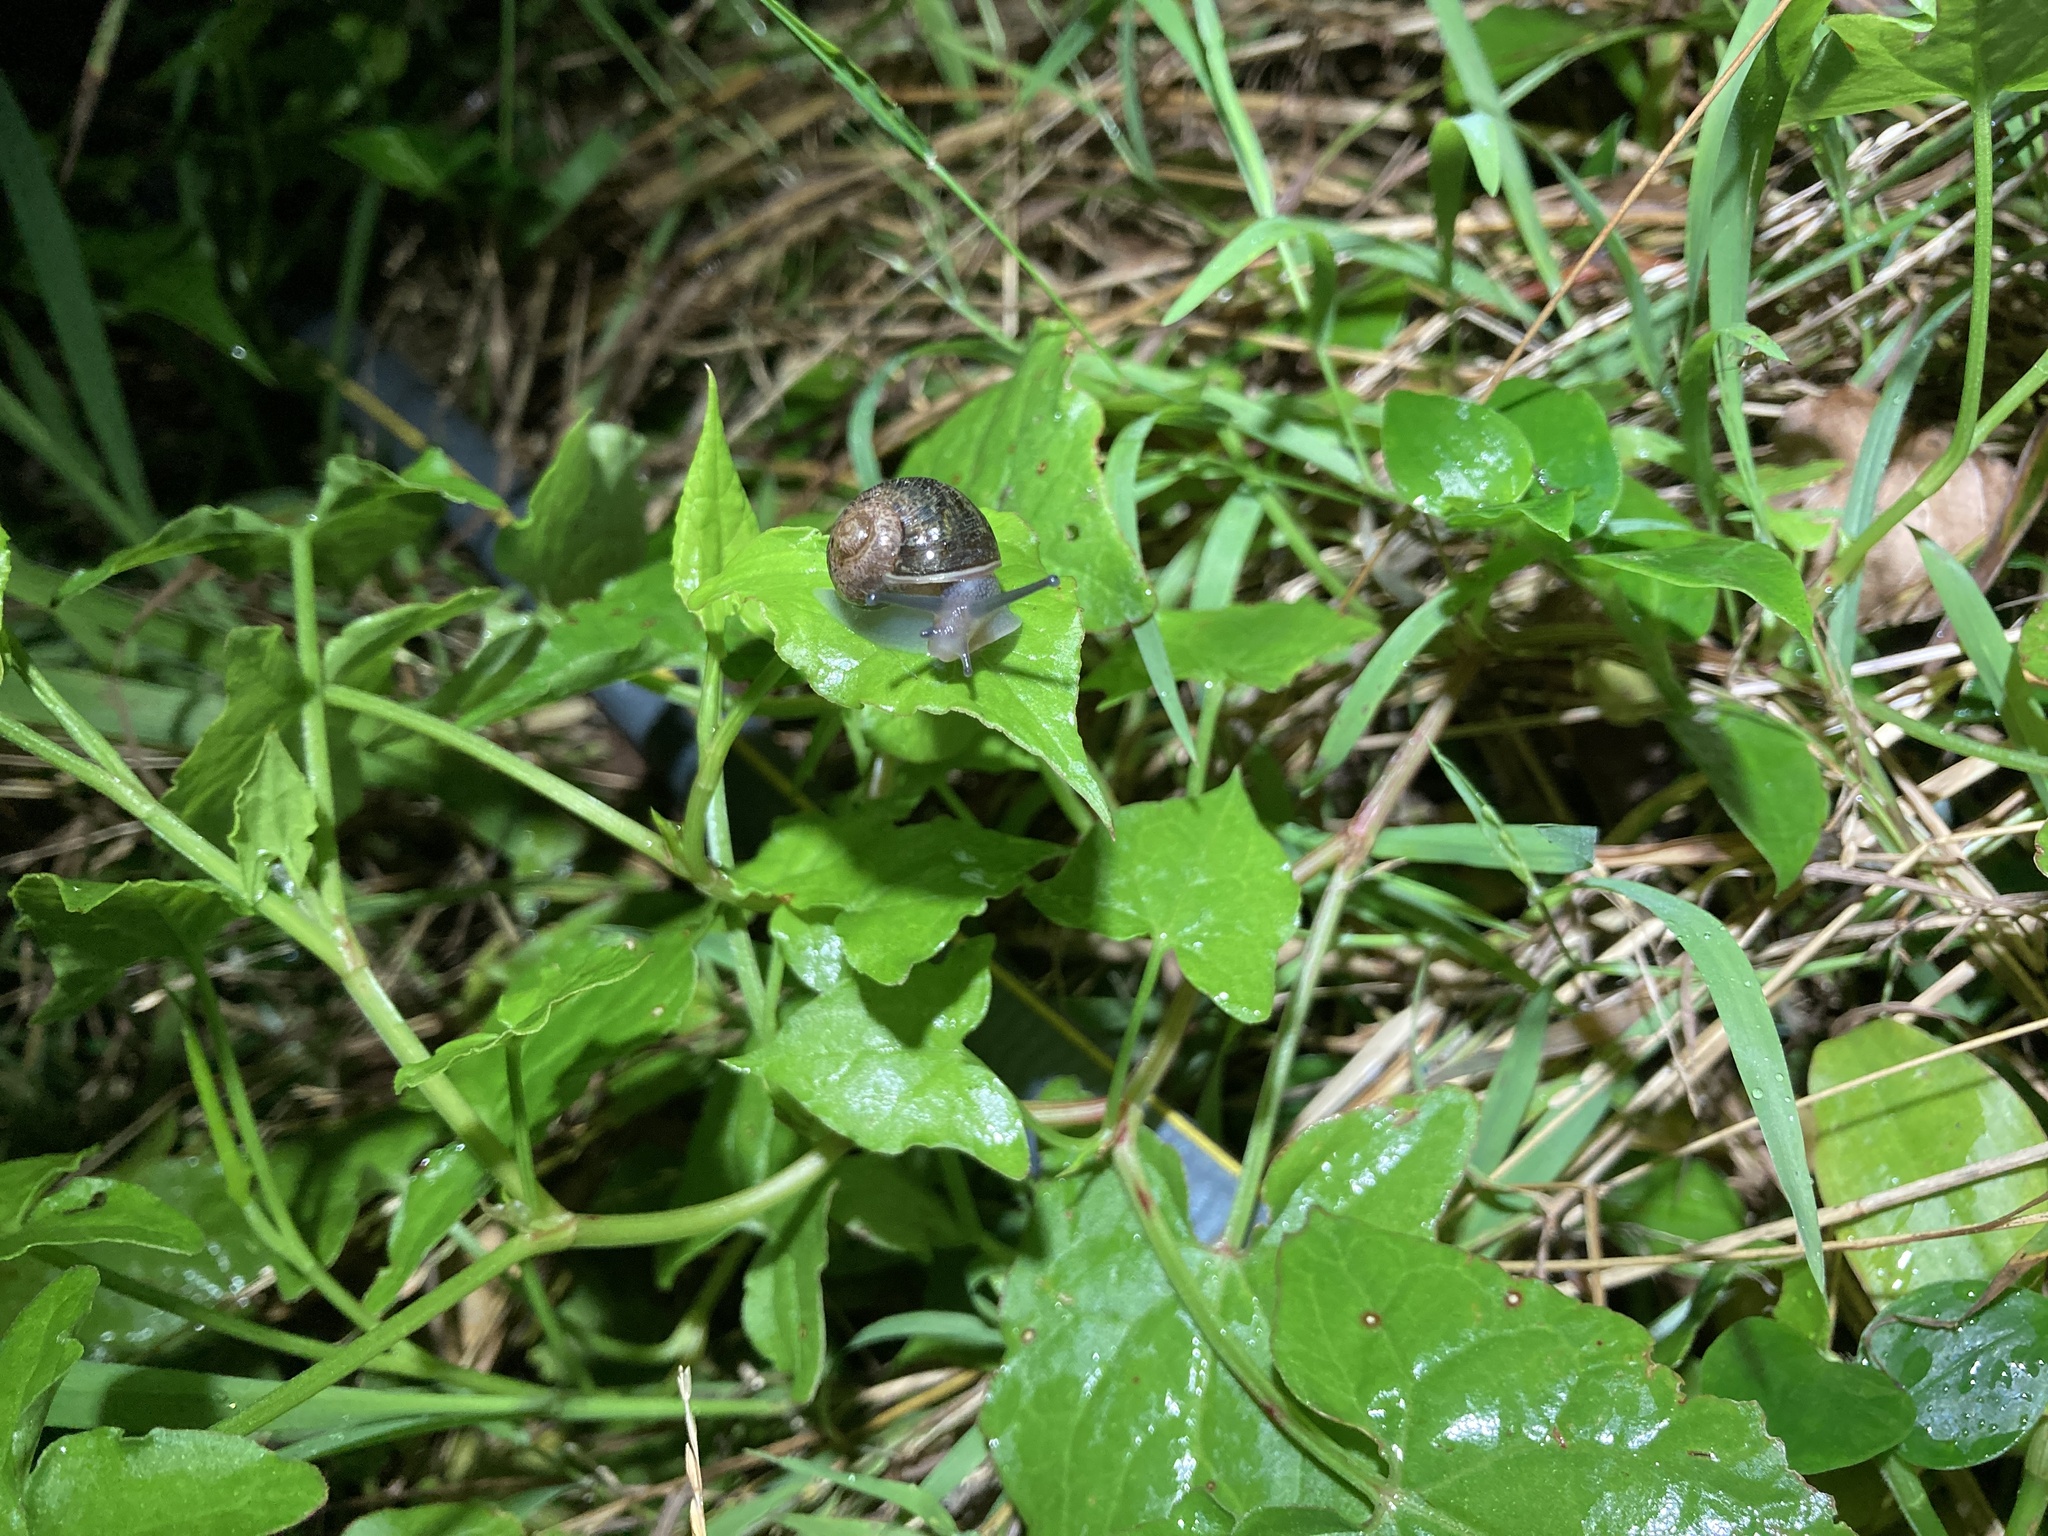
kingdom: Animalia
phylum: Mollusca
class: Gastropoda
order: Stylommatophora
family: Helicidae
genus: Cornu
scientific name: Cornu aspersum
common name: Brown garden snail
